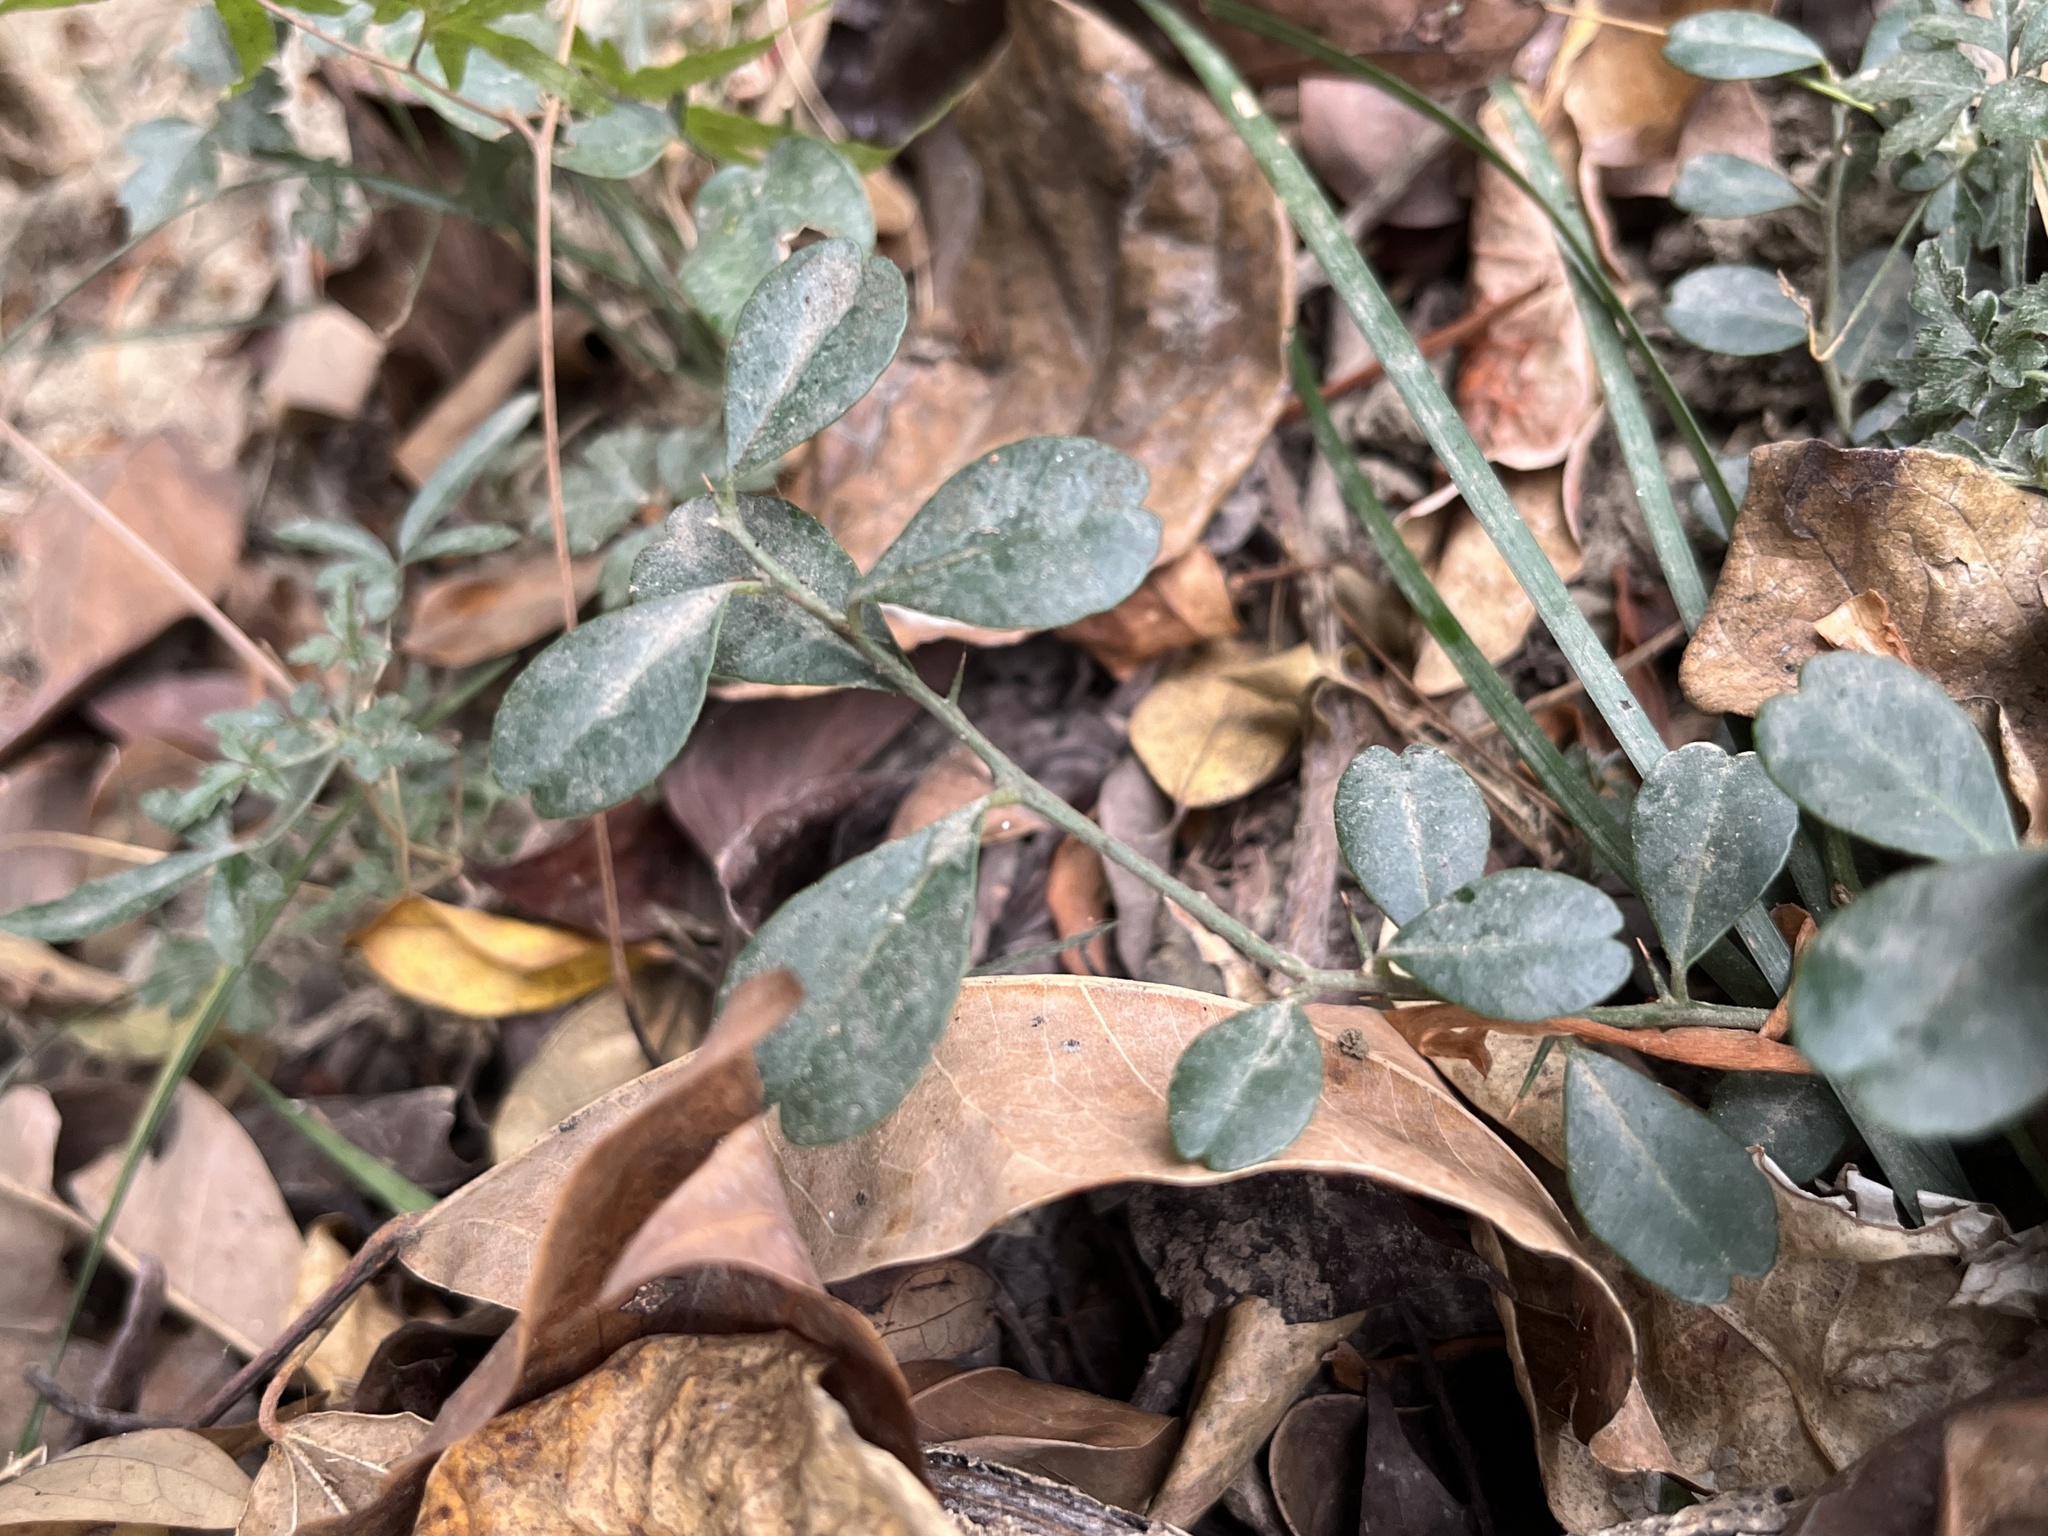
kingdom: Plantae
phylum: Tracheophyta
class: Magnoliopsida
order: Sapindales
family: Rutaceae
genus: Atalantia
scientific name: Atalantia buxifolia
